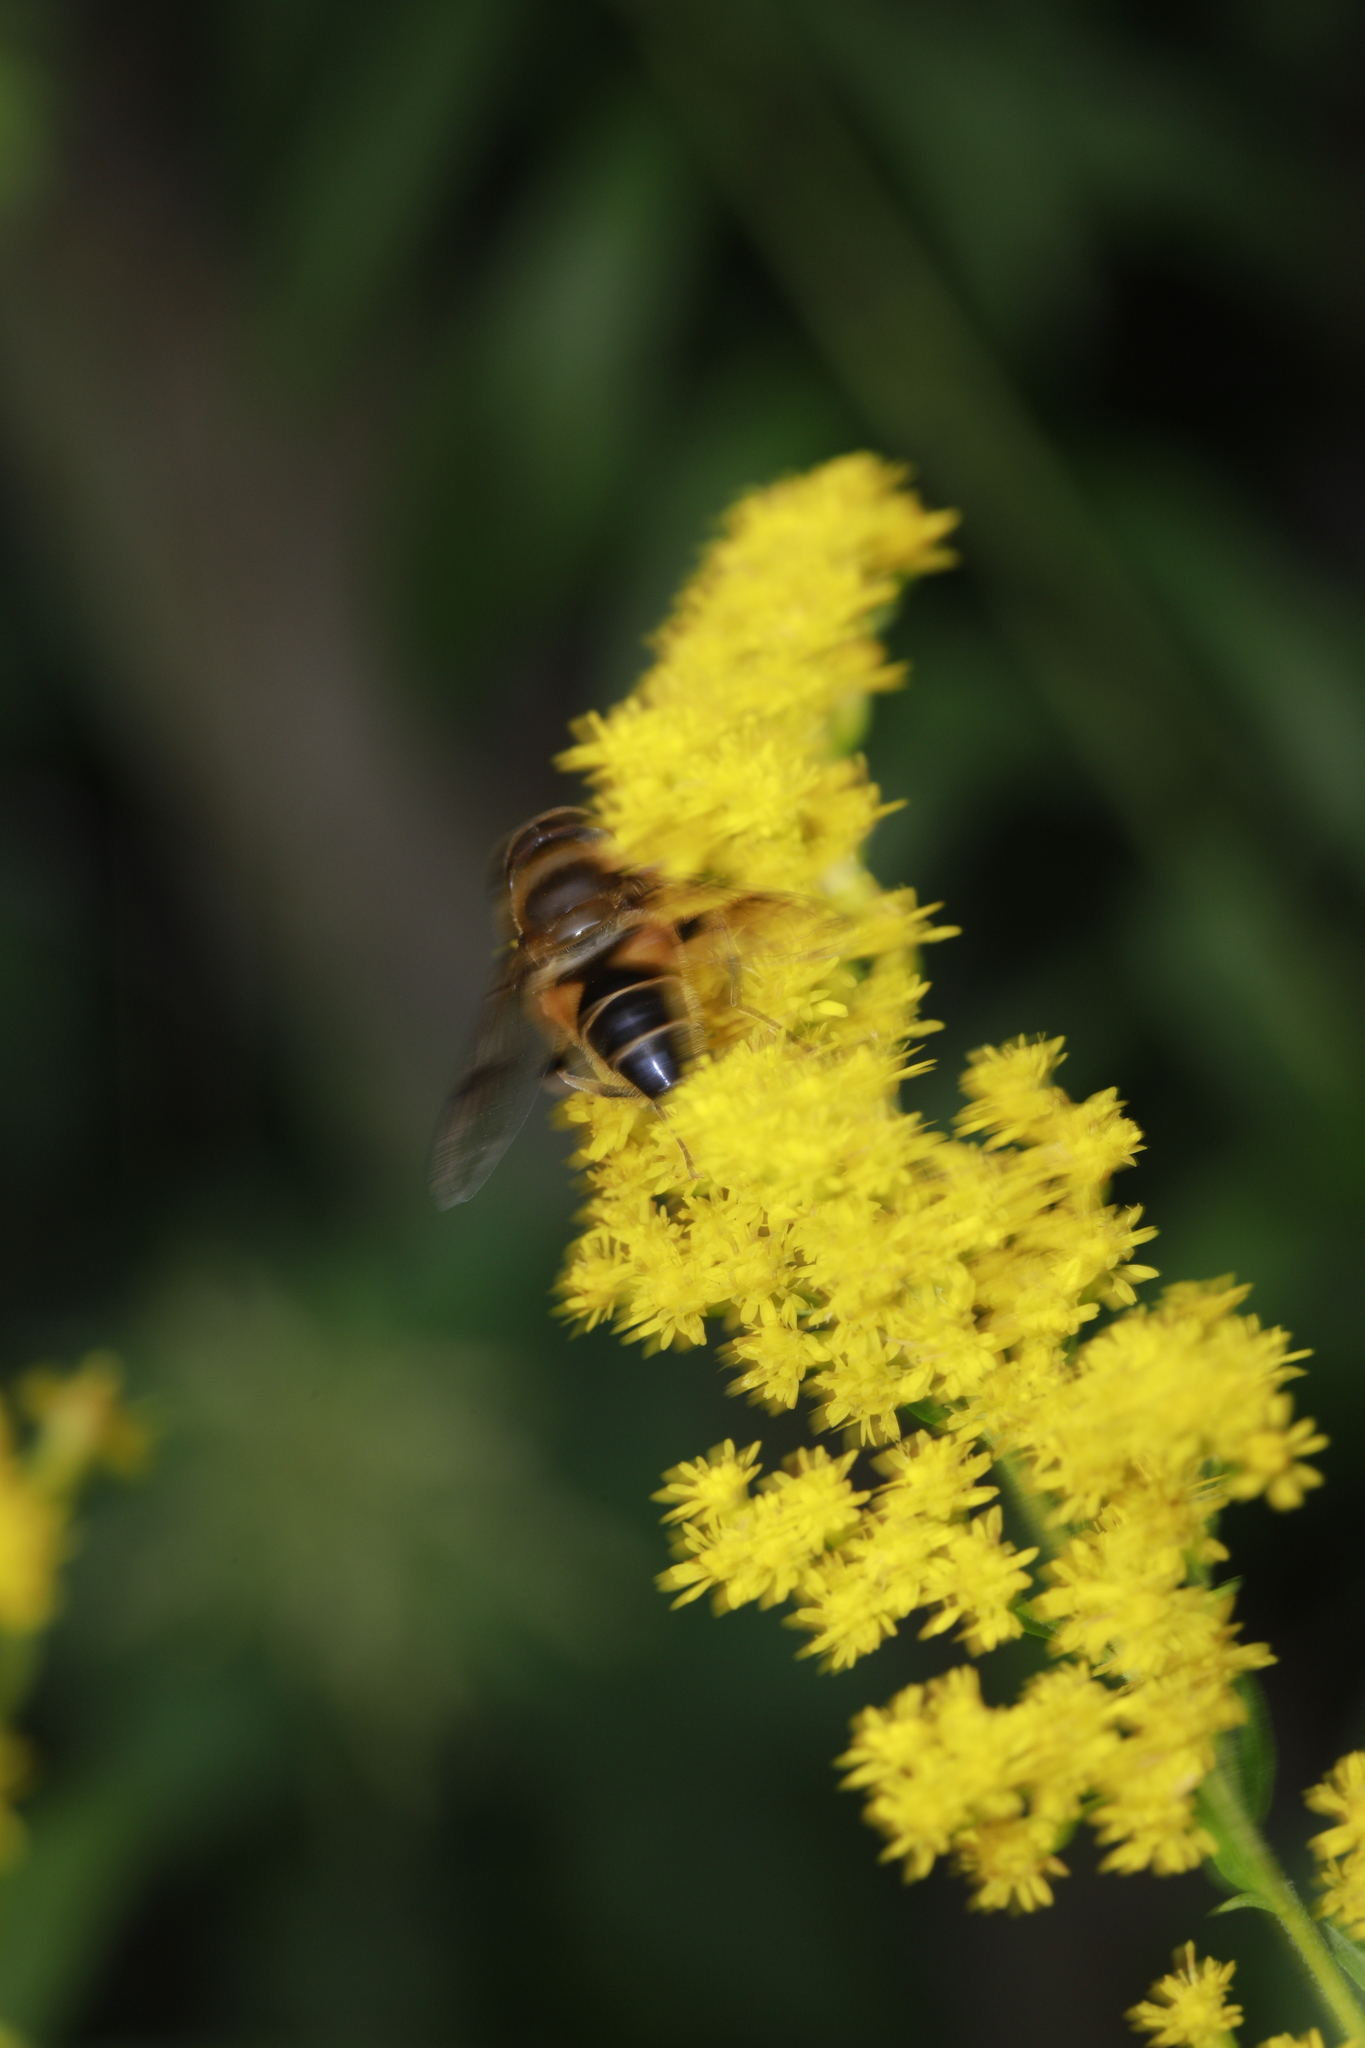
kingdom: Animalia
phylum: Arthropoda
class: Insecta
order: Diptera
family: Syrphidae
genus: Eristalis
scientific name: Eristalis pertinax
